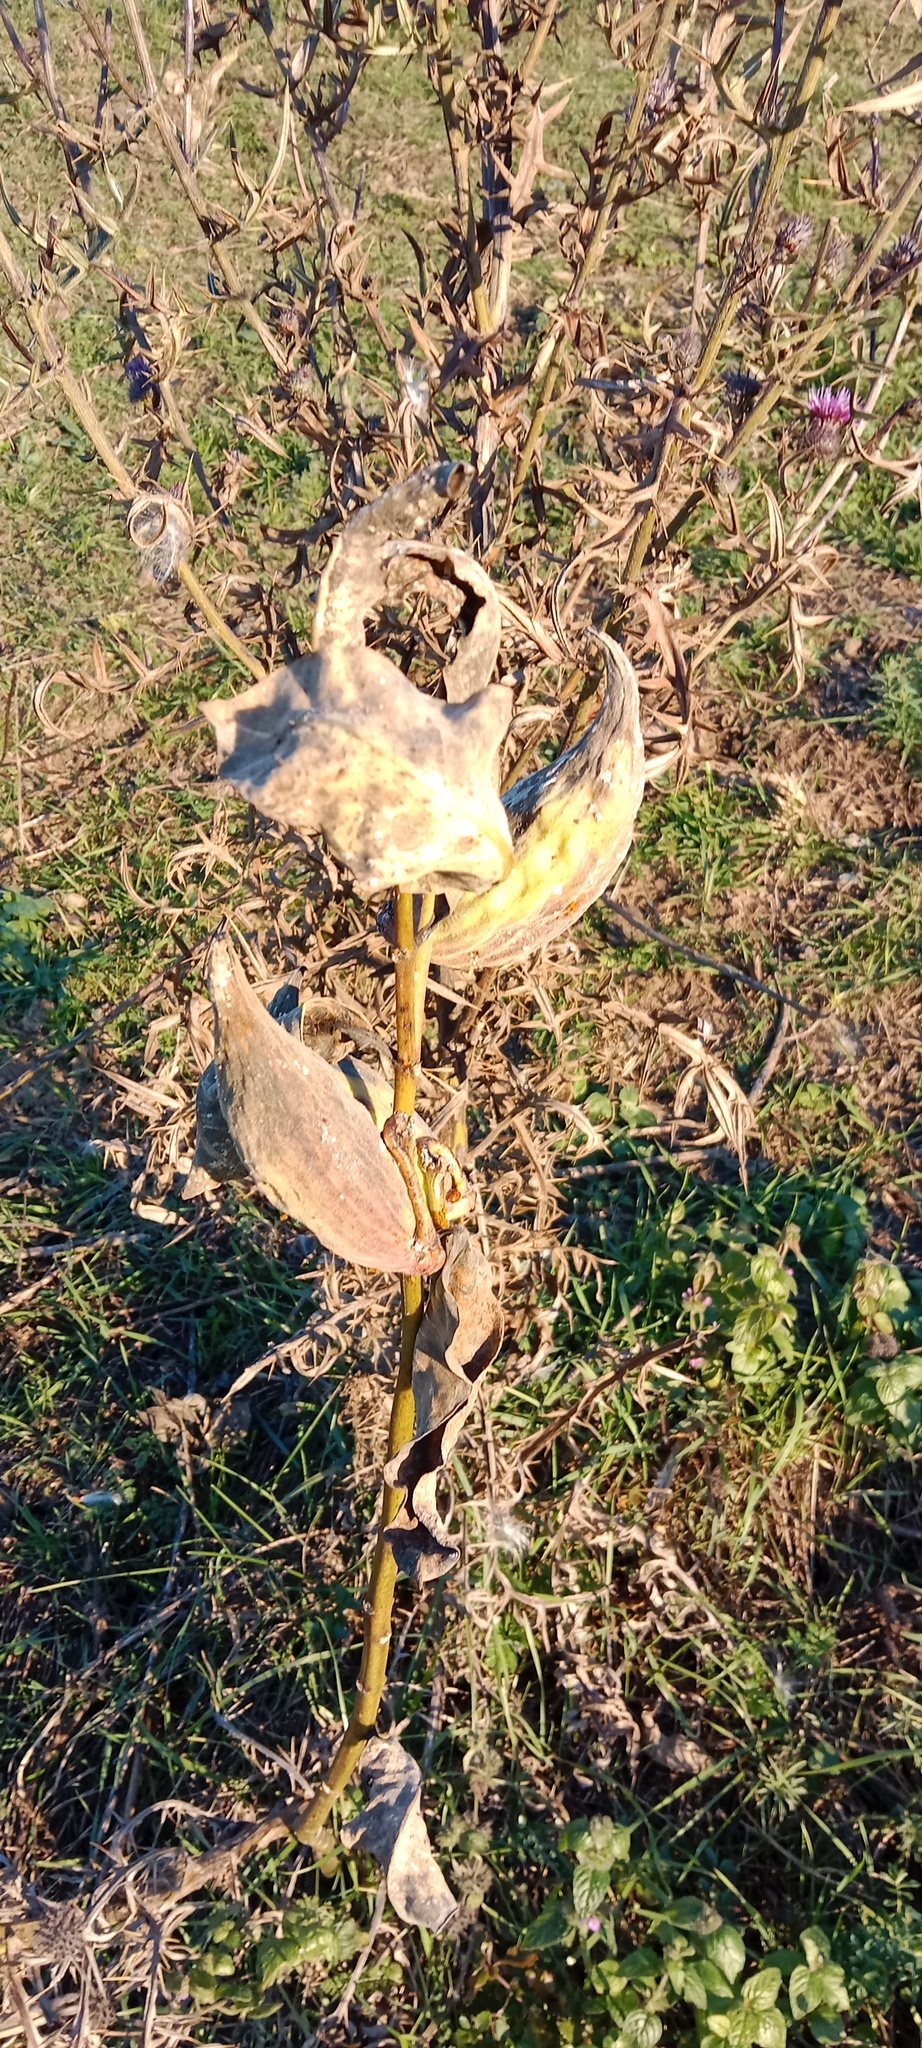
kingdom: Plantae
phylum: Tracheophyta
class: Magnoliopsida
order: Gentianales
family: Apocynaceae
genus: Asclepias
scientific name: Asclepias syriaca
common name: Common milkweed
